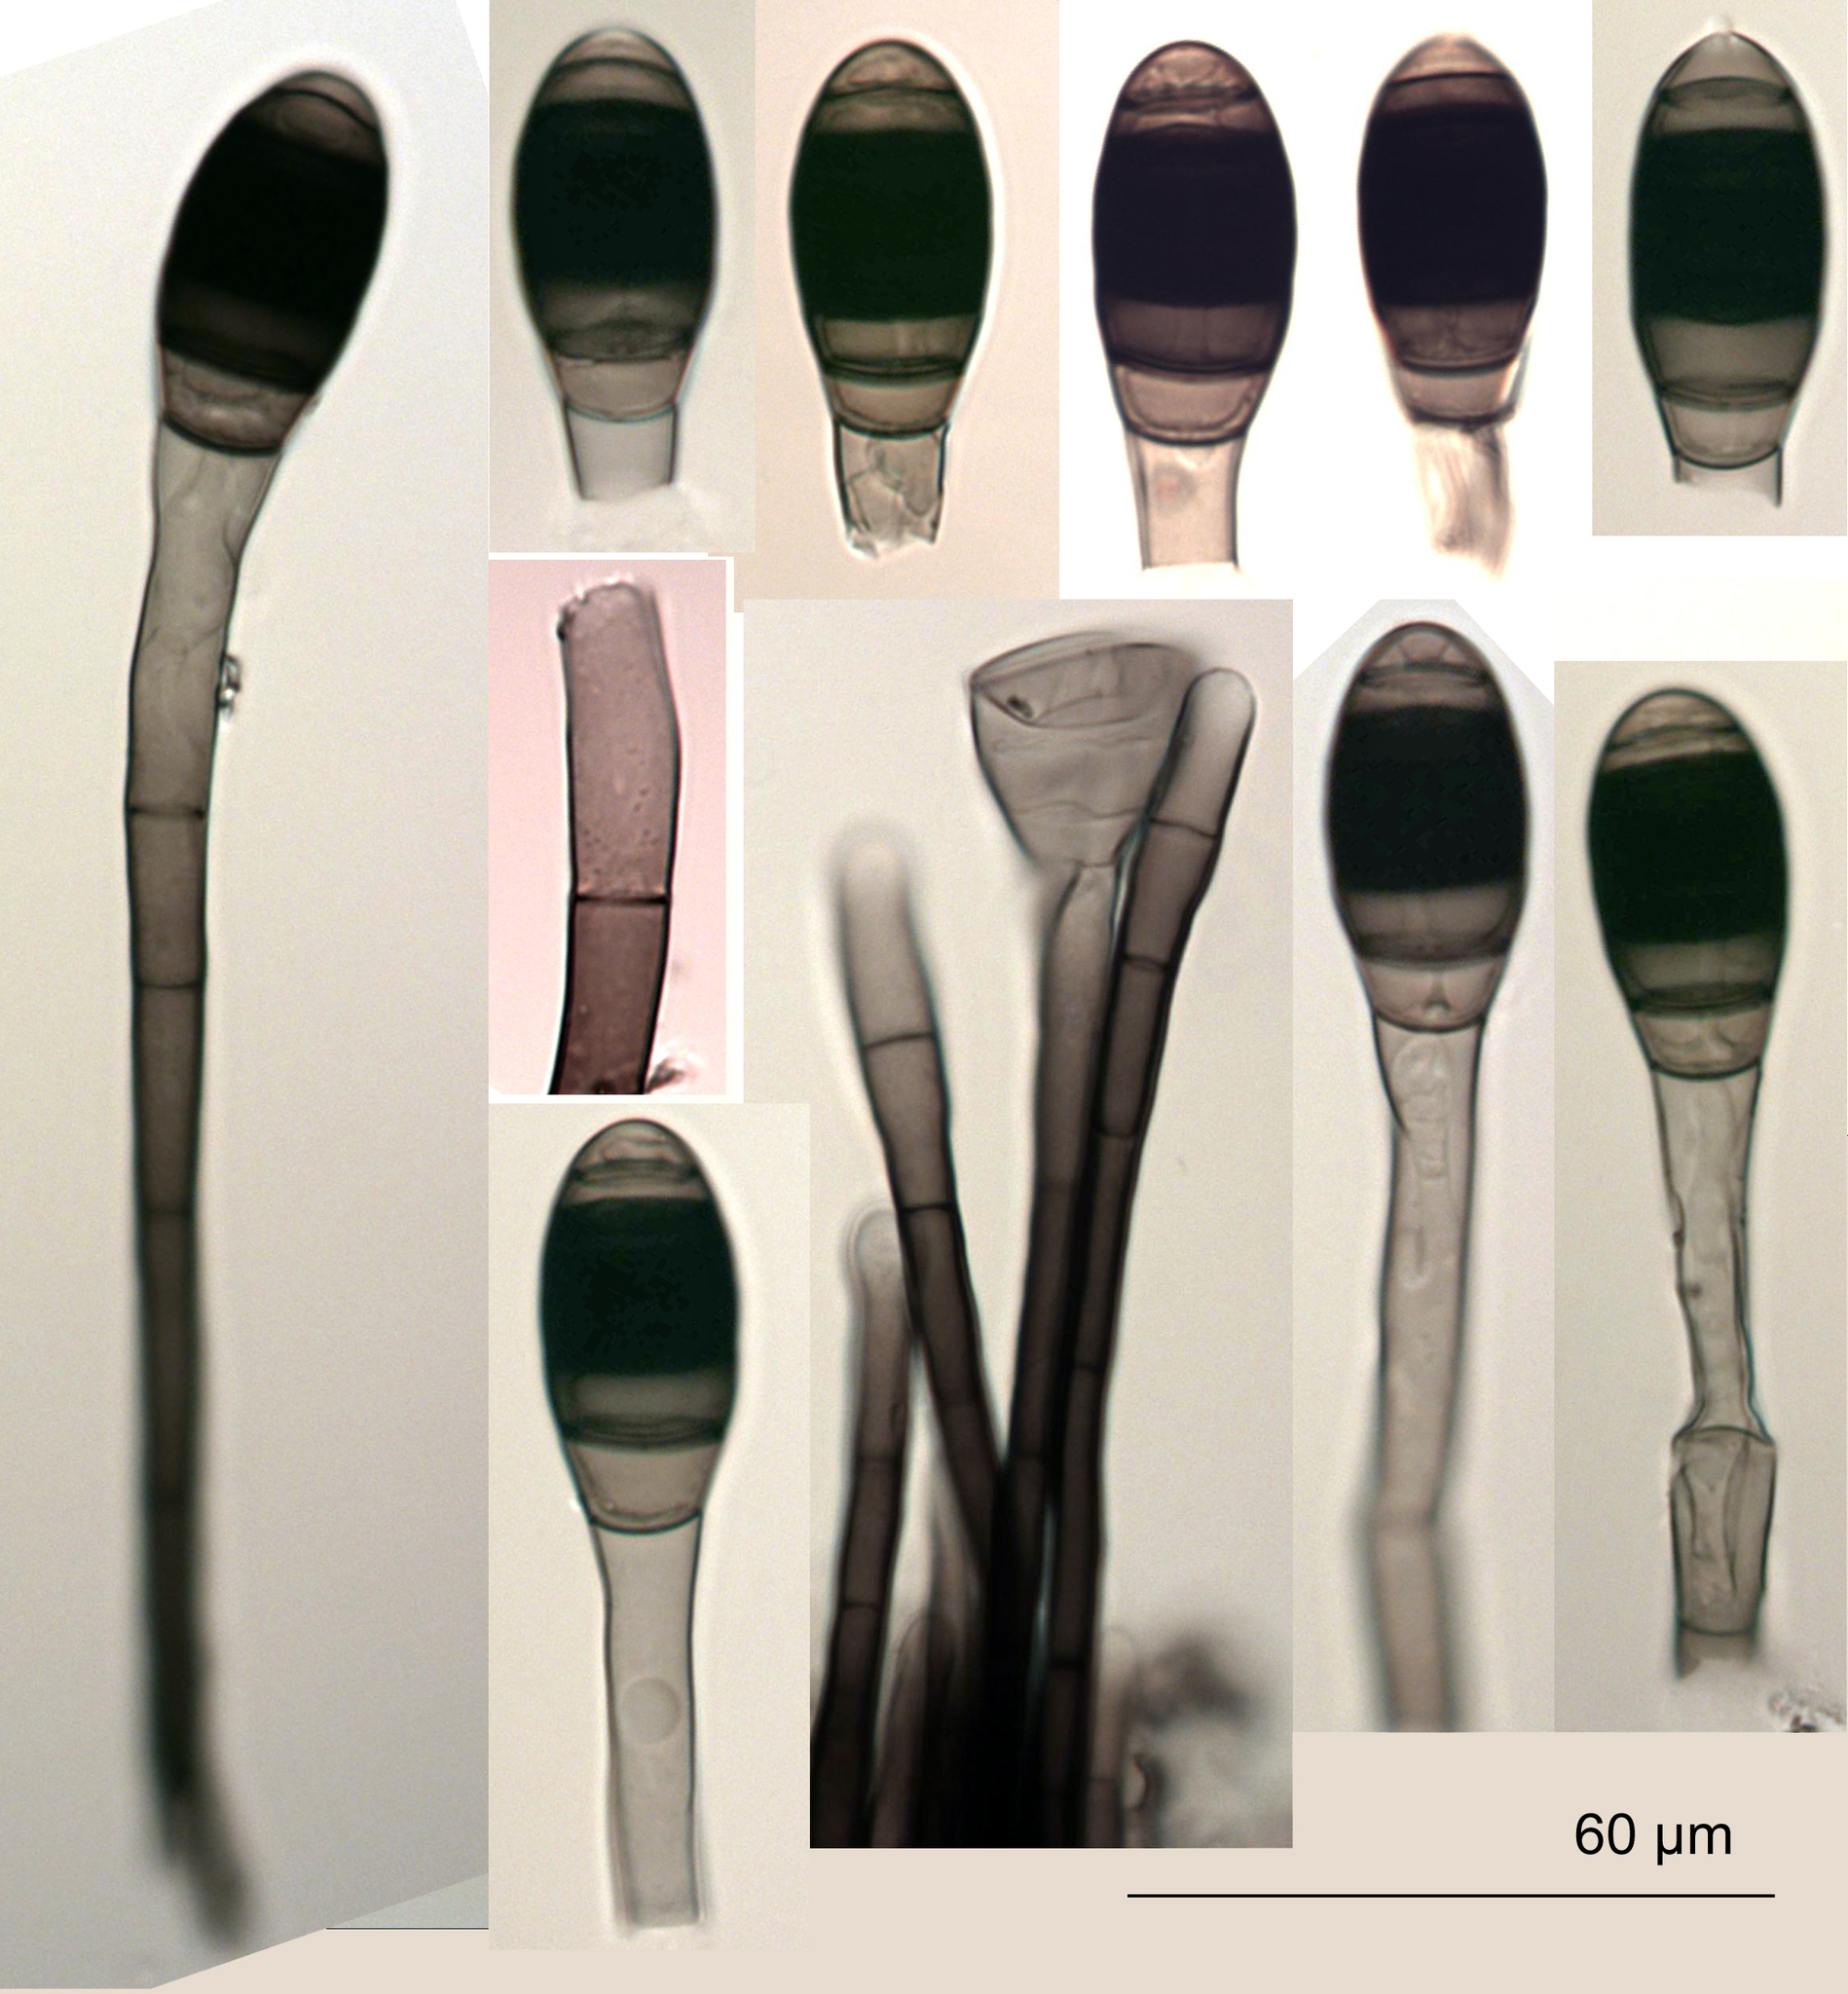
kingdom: Fungi
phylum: Ascomycota
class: Dothideomycetes
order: Pleosporales
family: Melanommataceae
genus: Phragmocephala
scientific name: Phragmocephala elliptica
